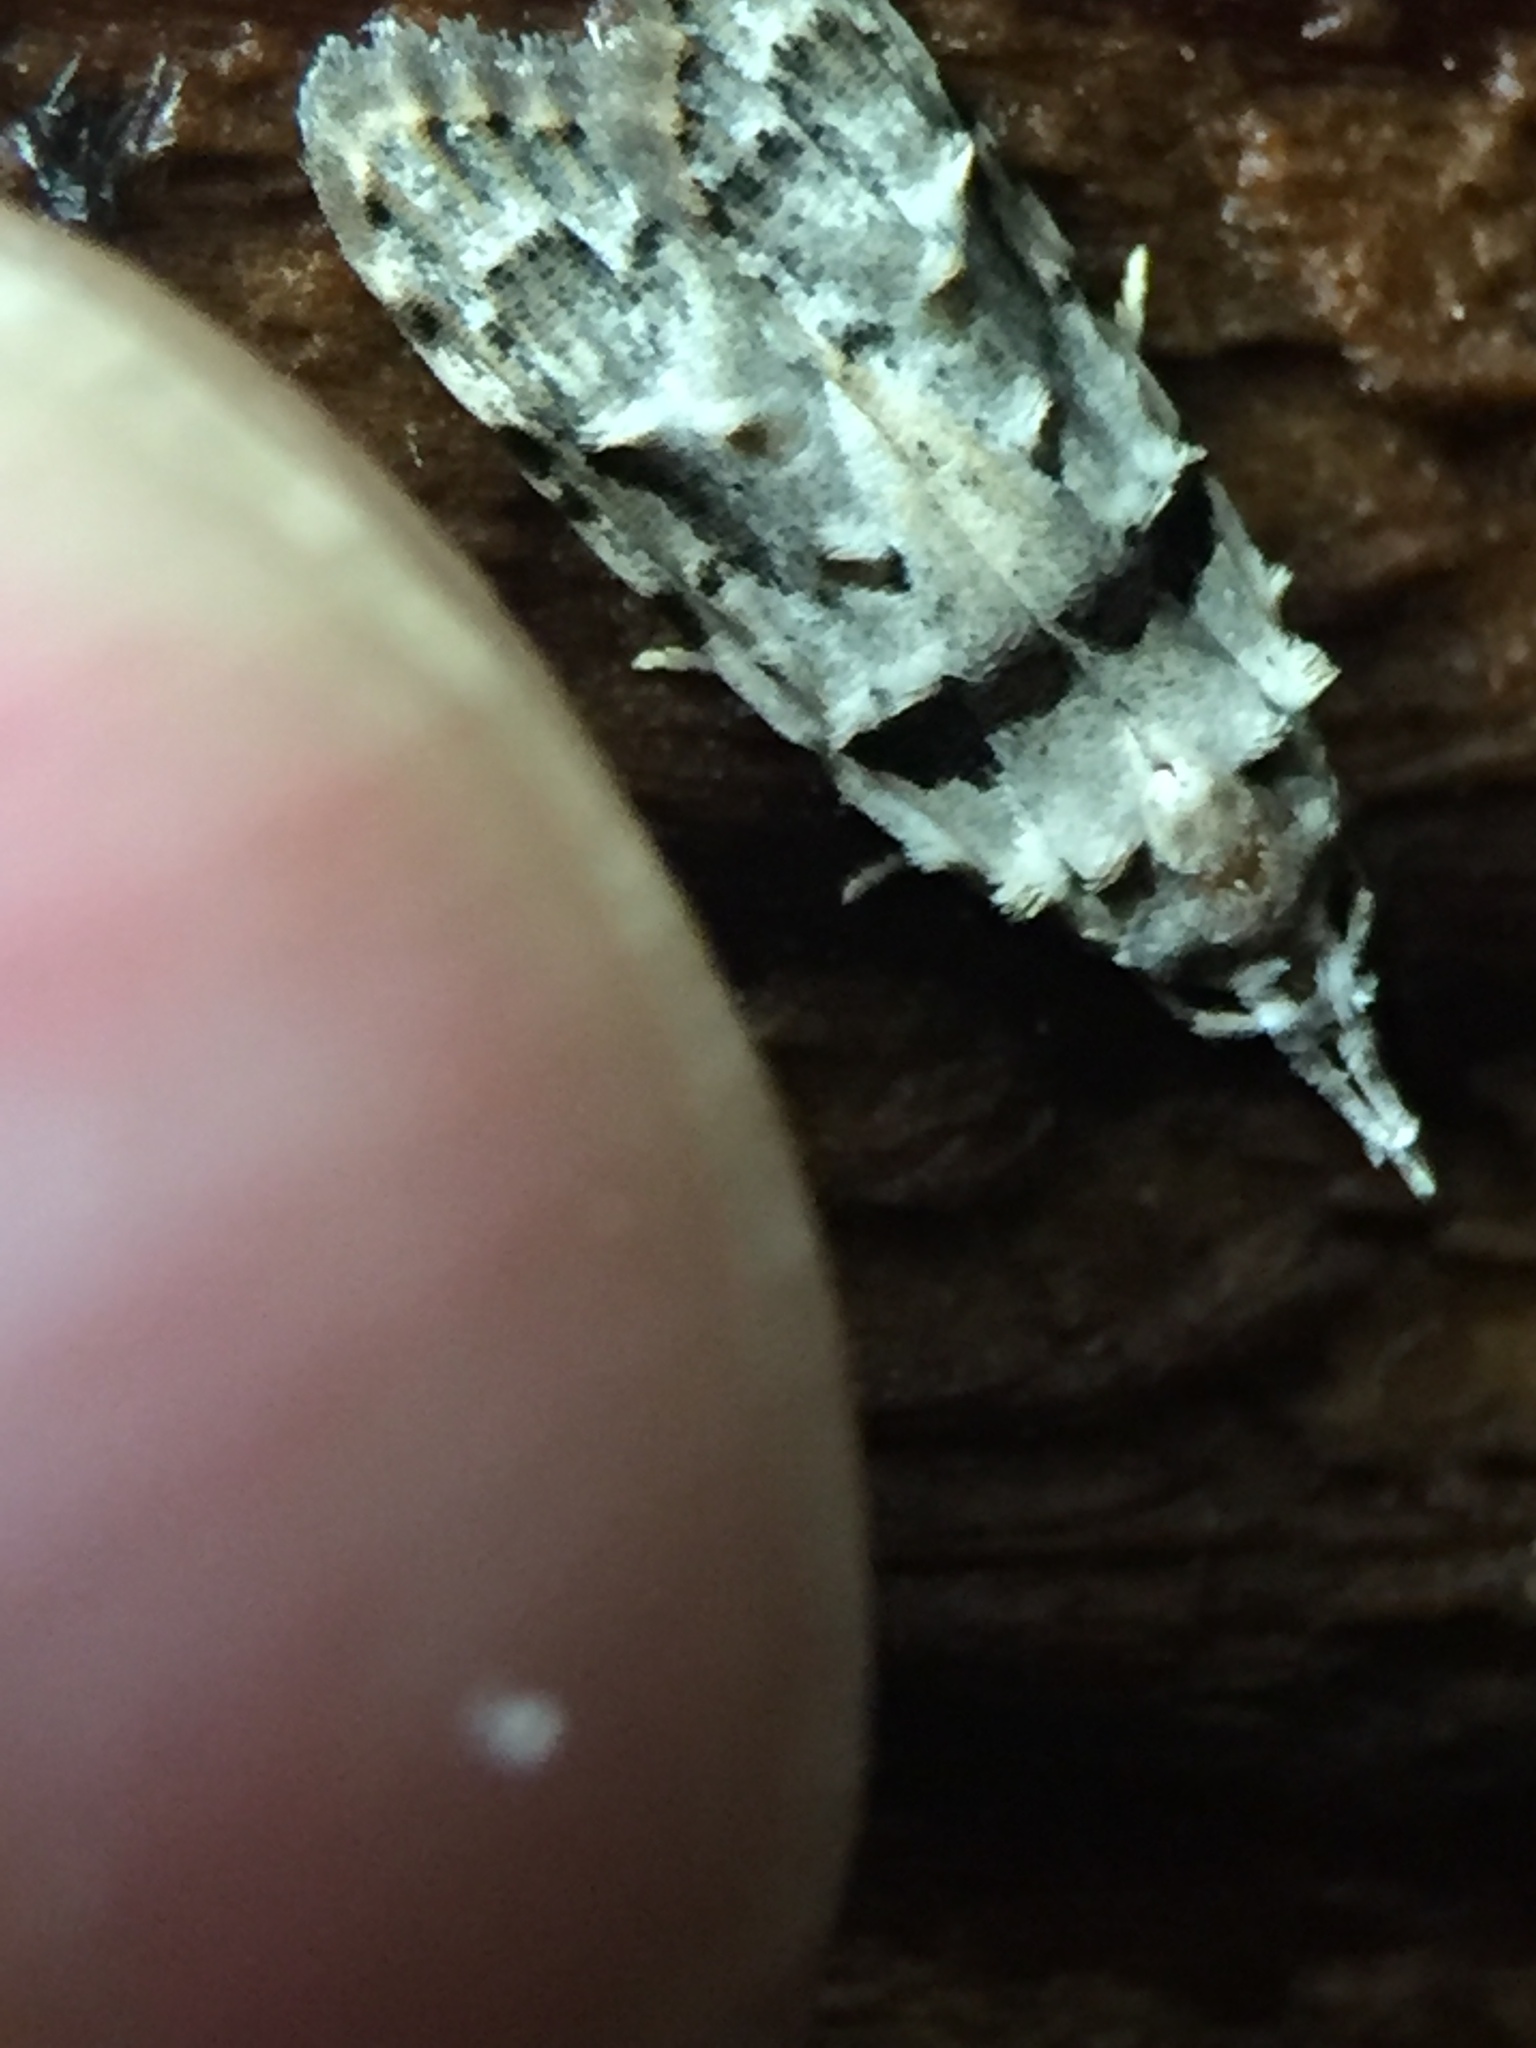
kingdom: Animalia
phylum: Arthropoda
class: Insecta
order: Lepidoptera
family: Carposinidae
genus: Coscinoptycha
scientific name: Coscinoptycha improbana
